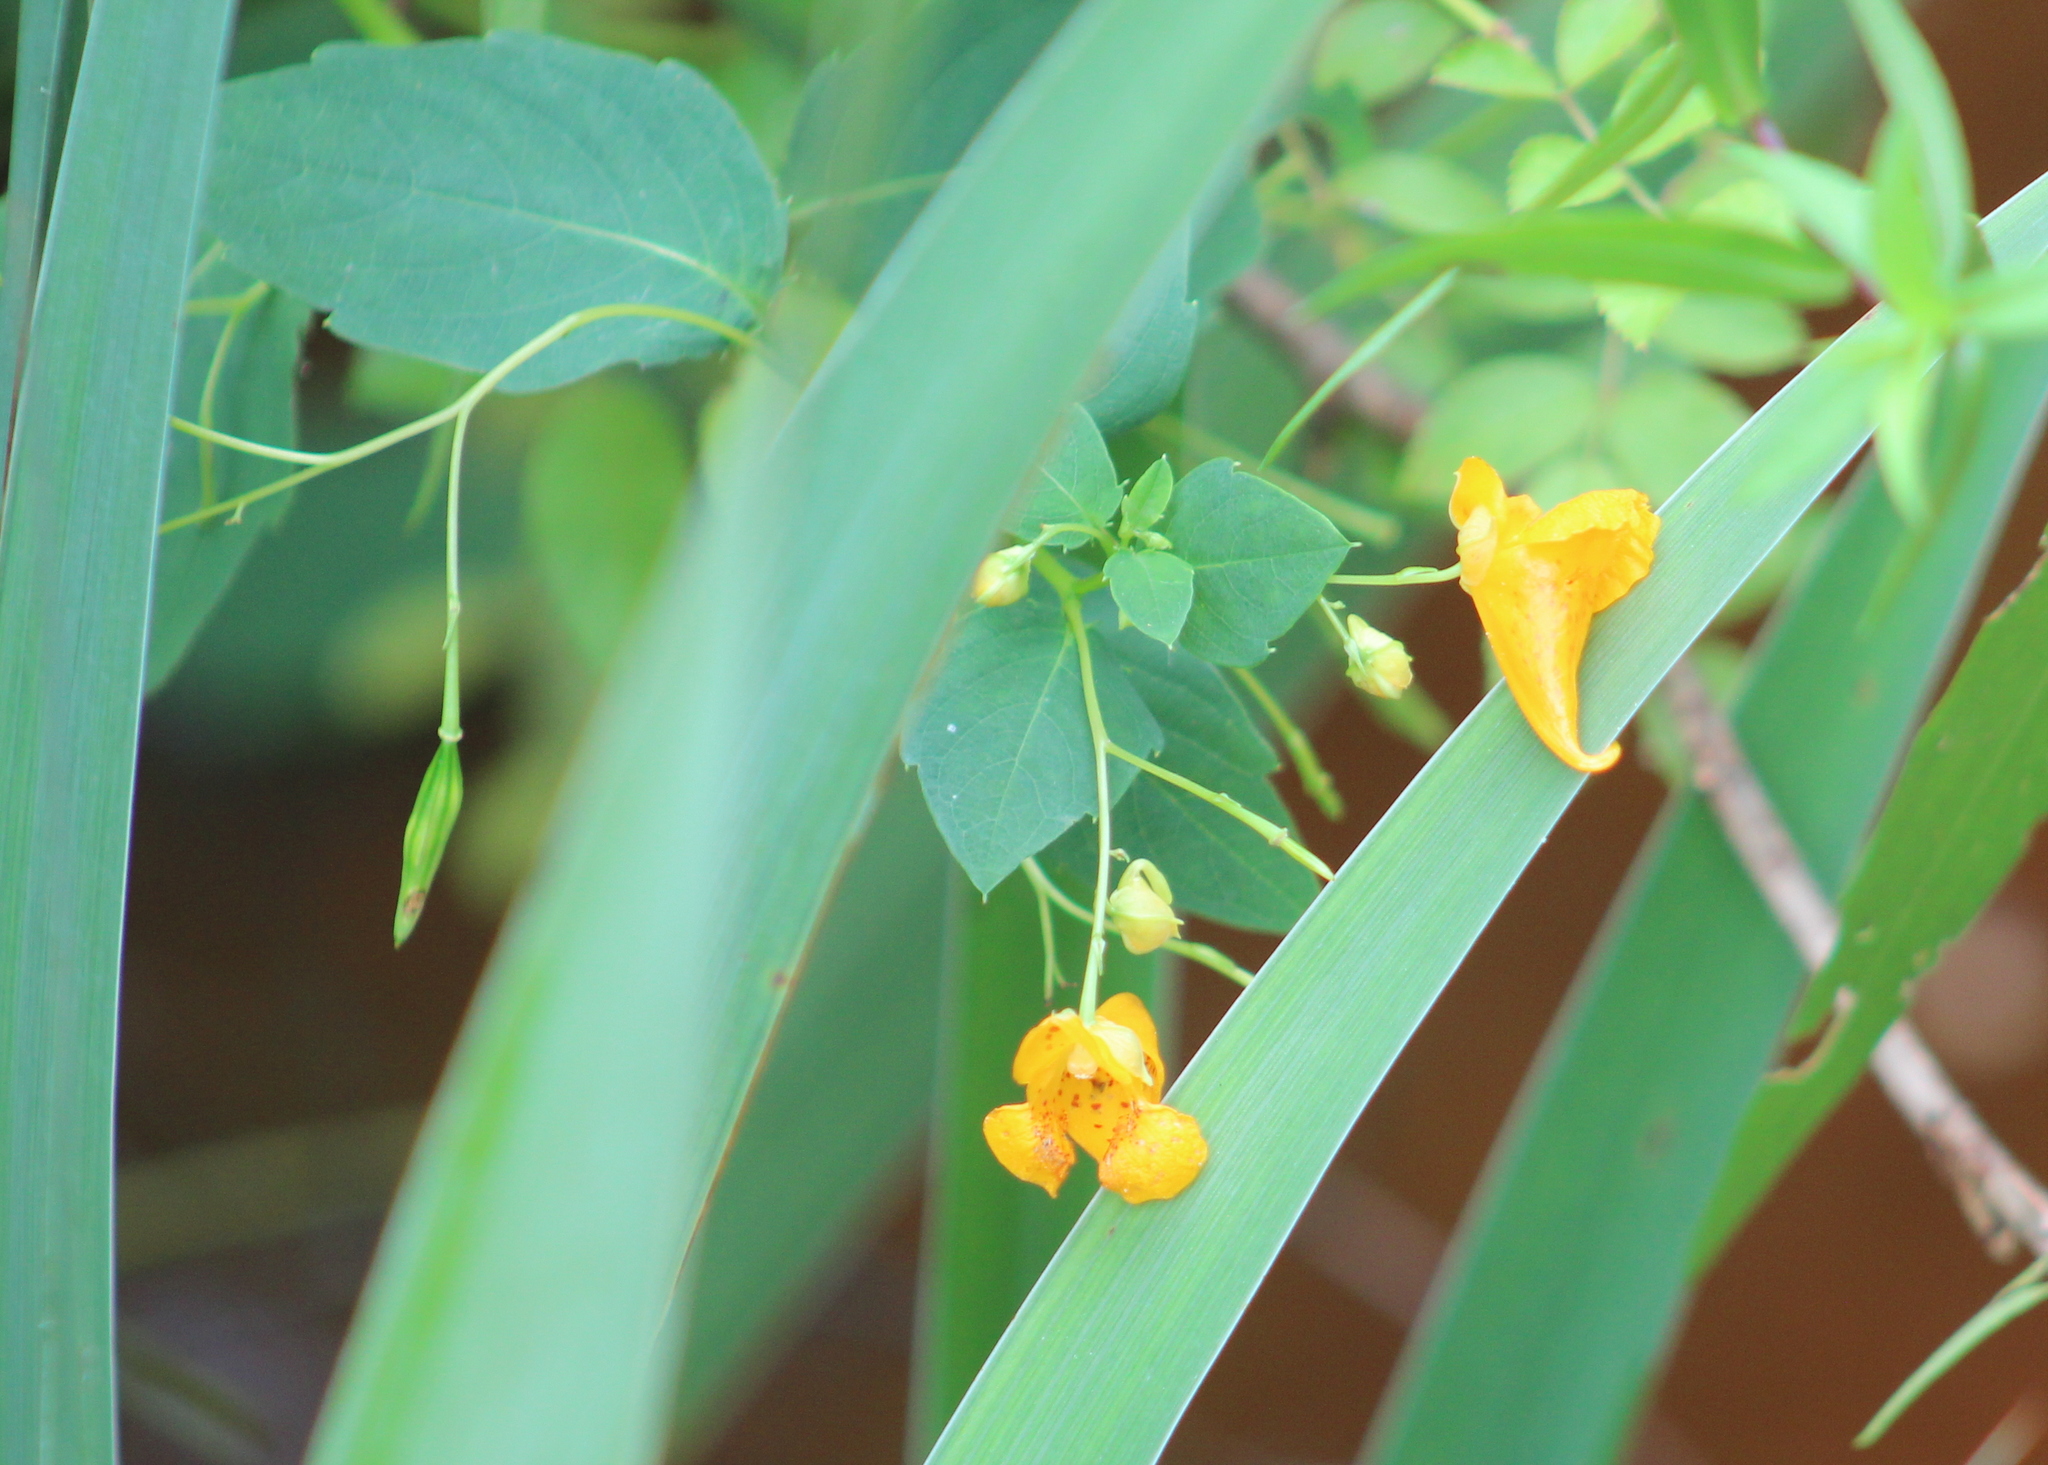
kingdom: Plantae
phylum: Tracheophyta
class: Magnoliopsida
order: Ericales
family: Balsaminaceae
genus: Impatiens
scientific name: Impatiens capensis
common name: Orange balsam
